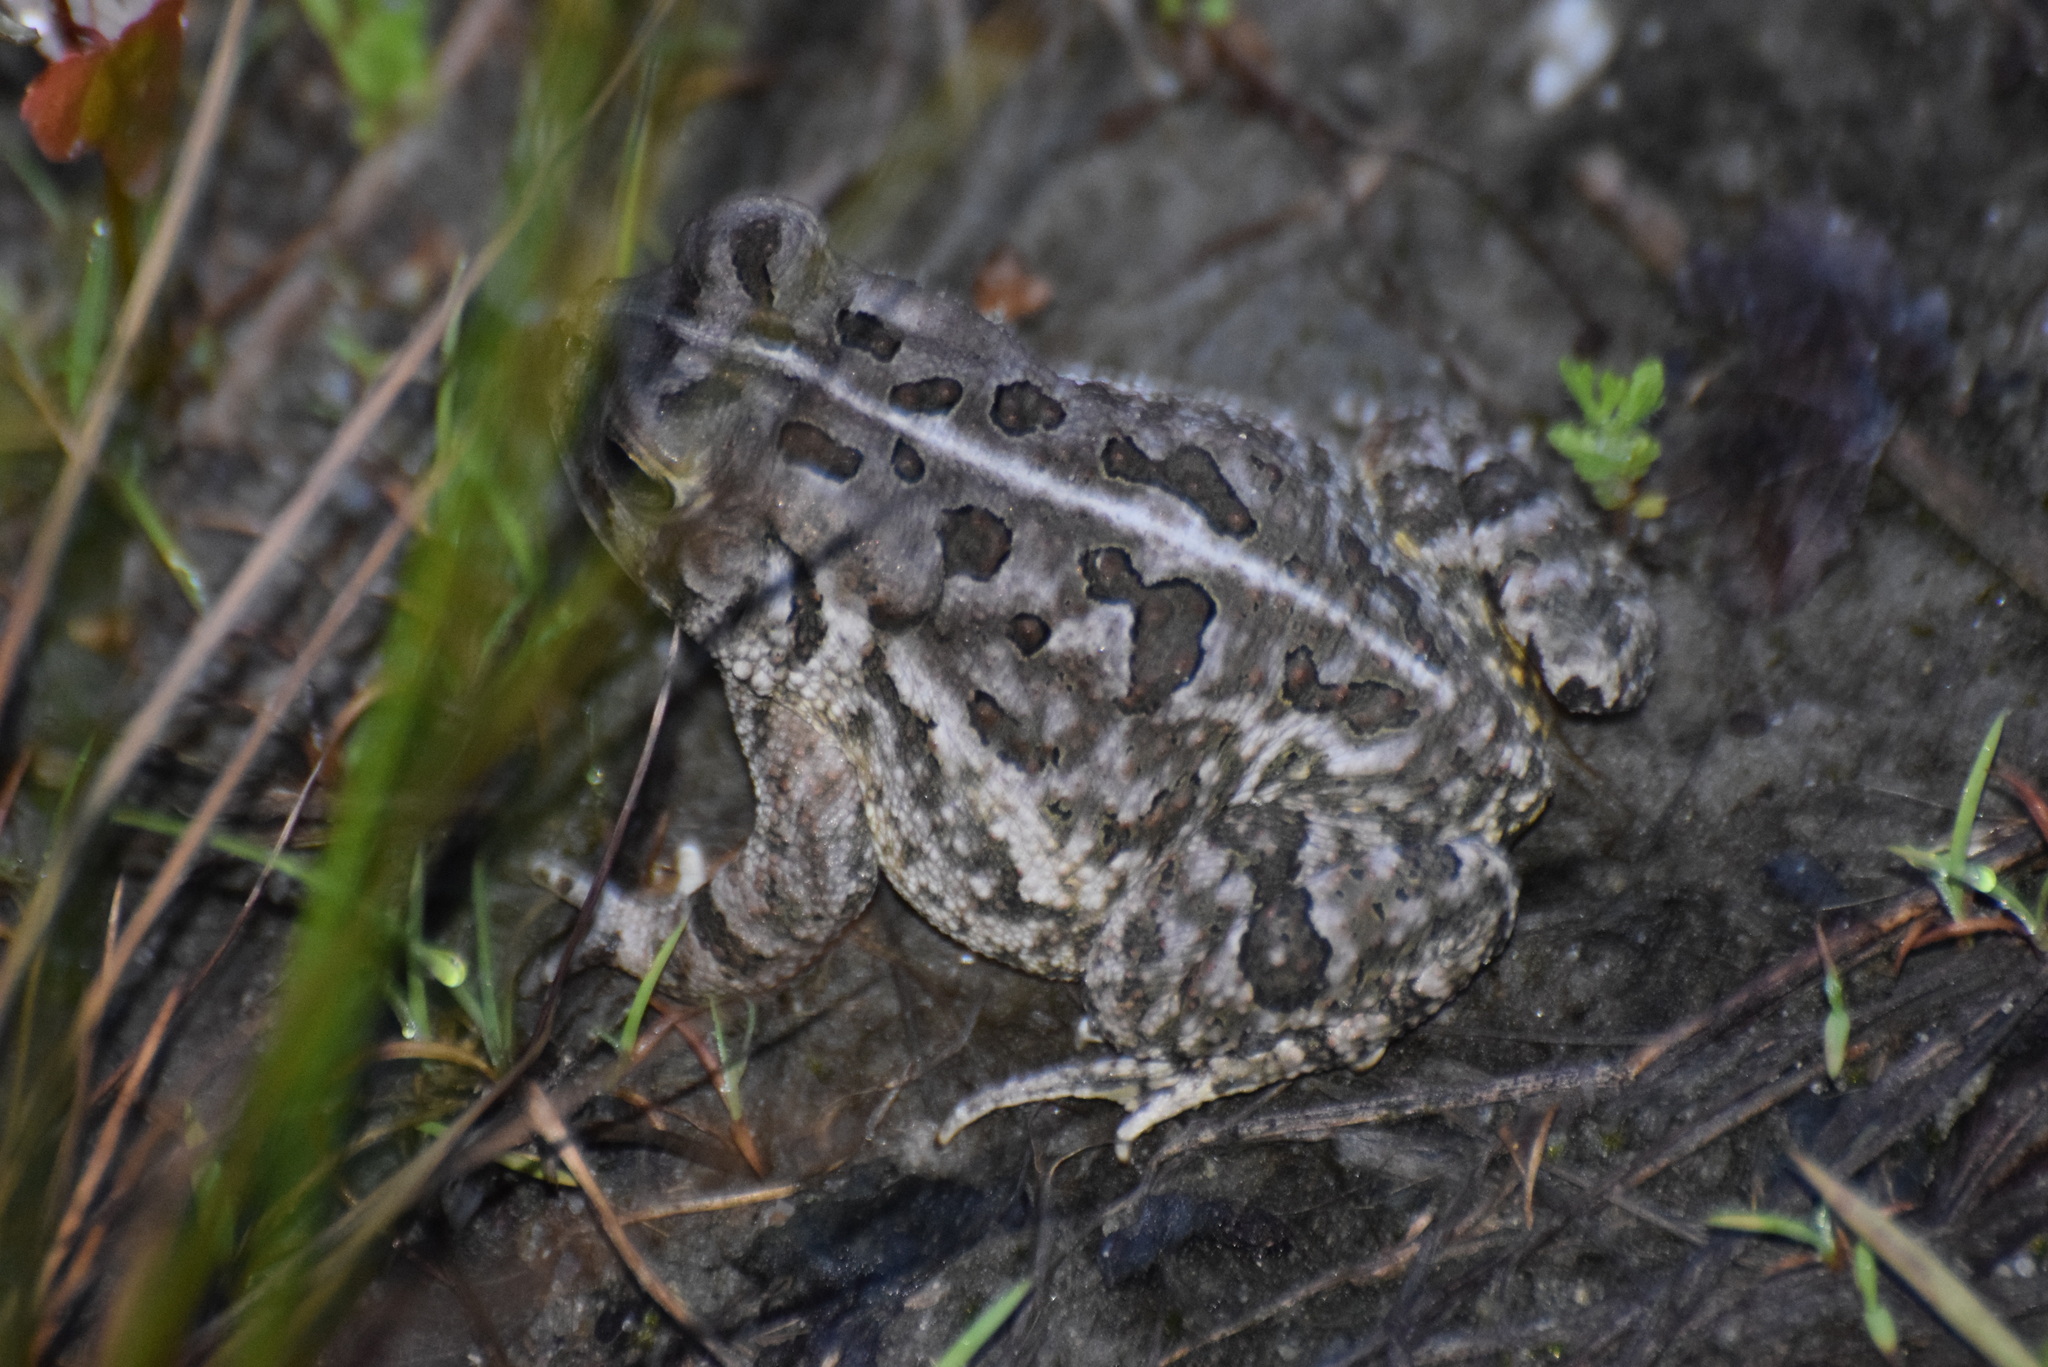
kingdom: Animalia
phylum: Chordata
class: Amphibia
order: Anura
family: Bufonidae
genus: Anaxyrus
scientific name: Anaxyrus fowleri
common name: Fowler's toad
